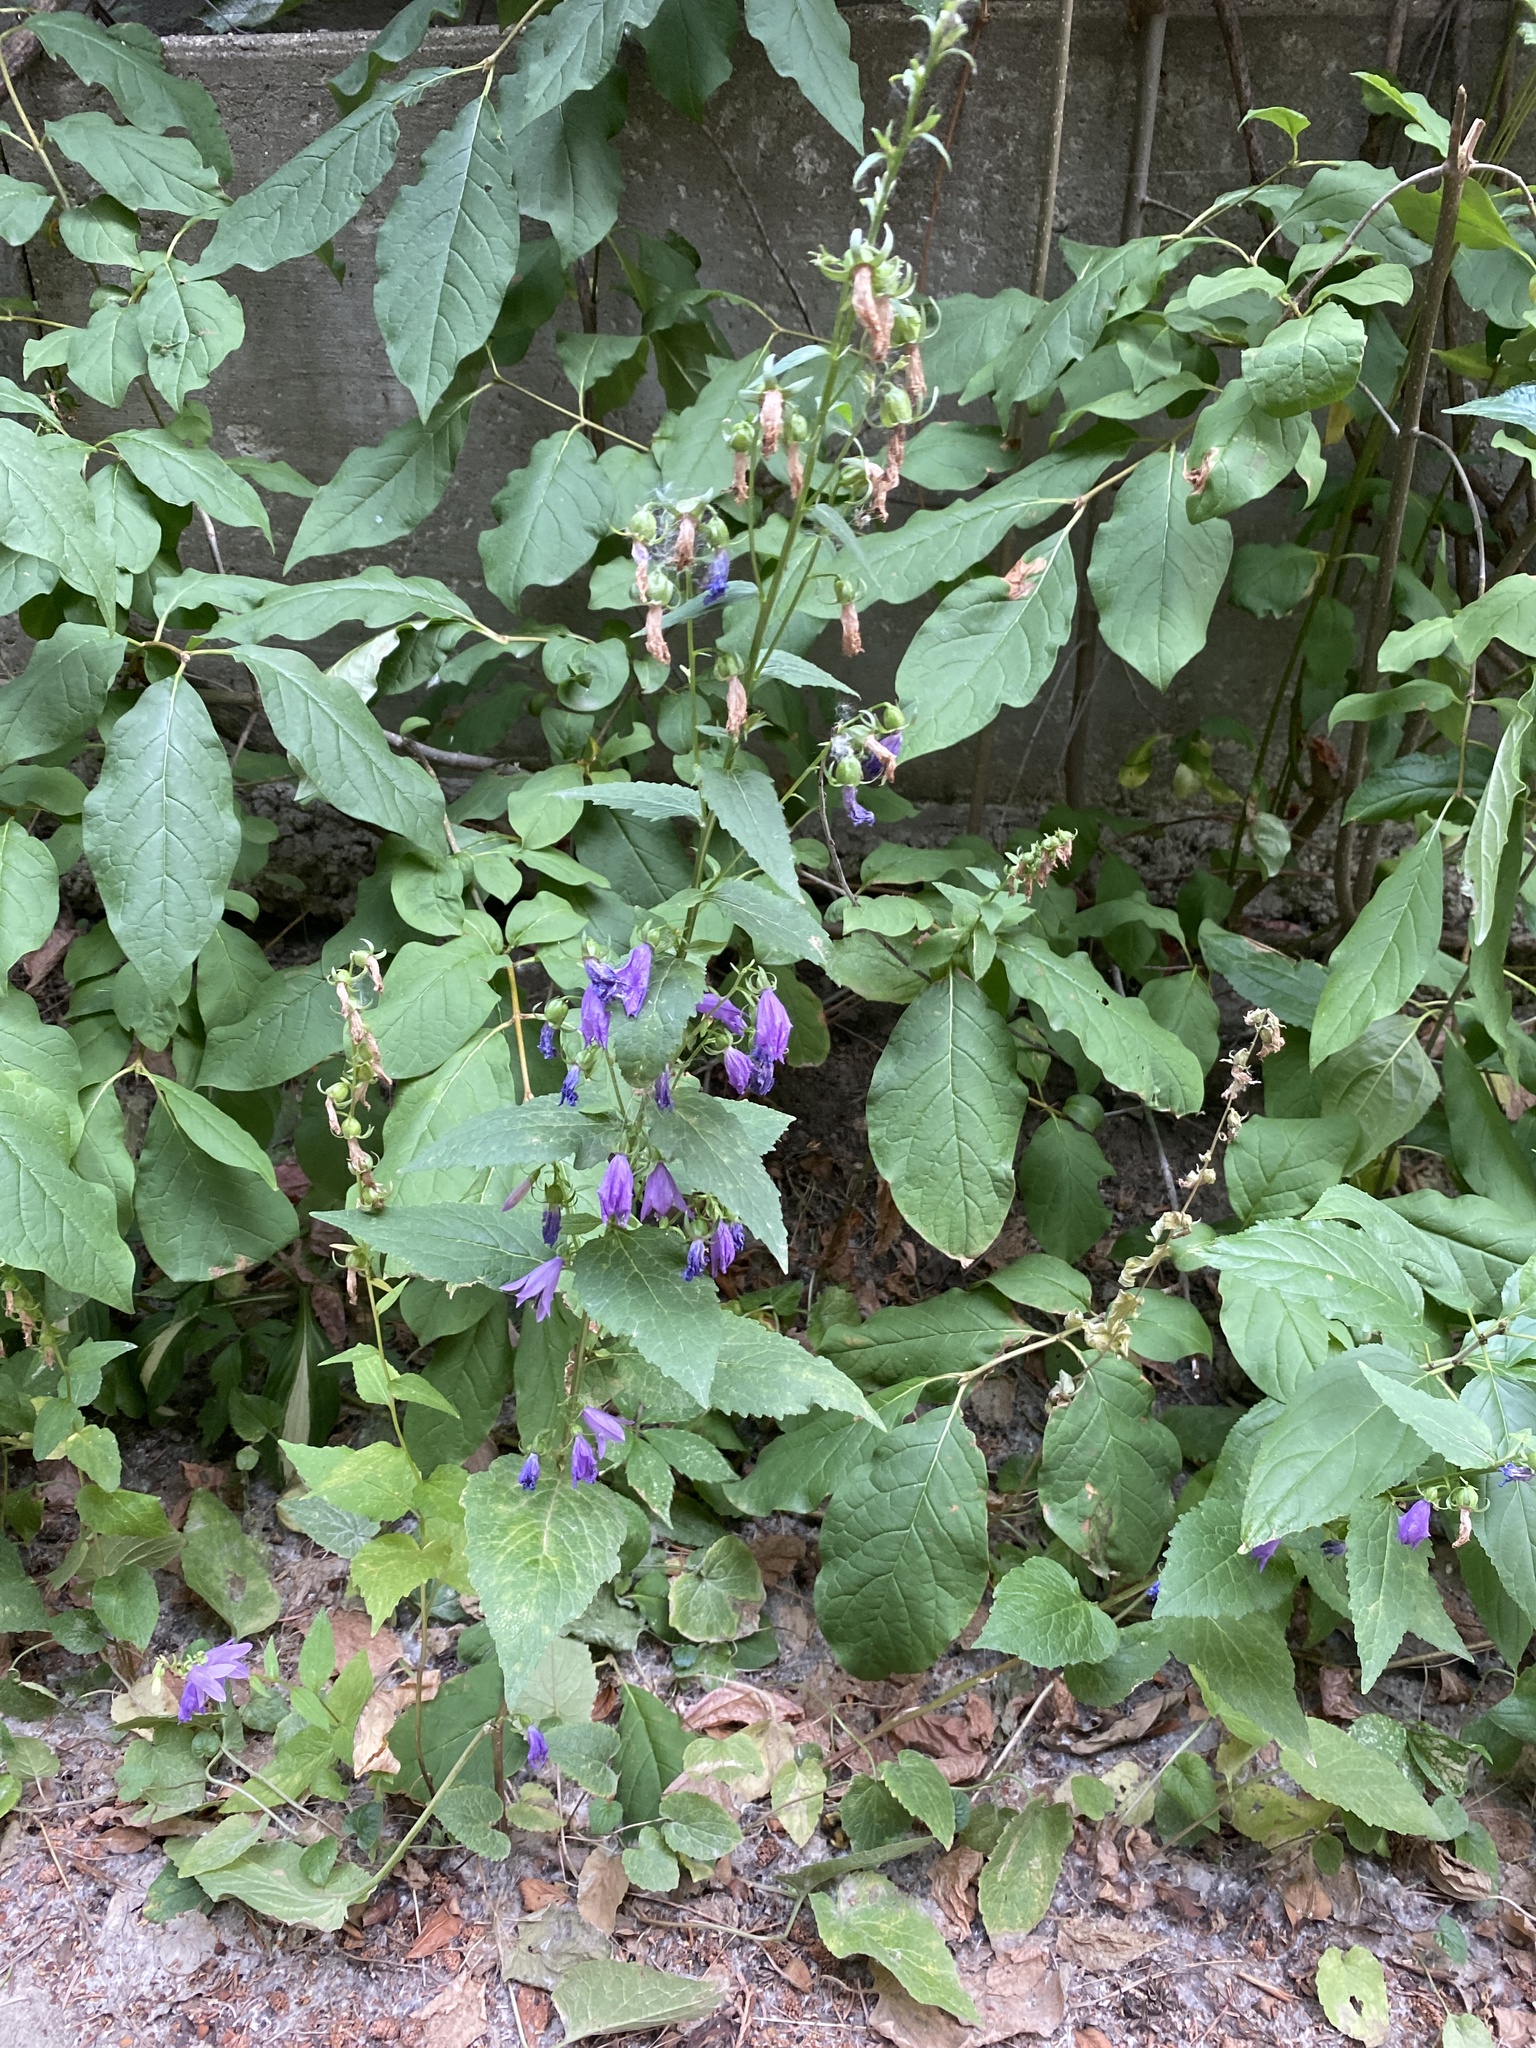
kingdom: Plantae
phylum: Tracheophyta
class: Magnoliopsida
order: Asterales
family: Campanulaceae
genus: Campanula
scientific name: Campanula rapunculoides
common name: Creeping bellflower
